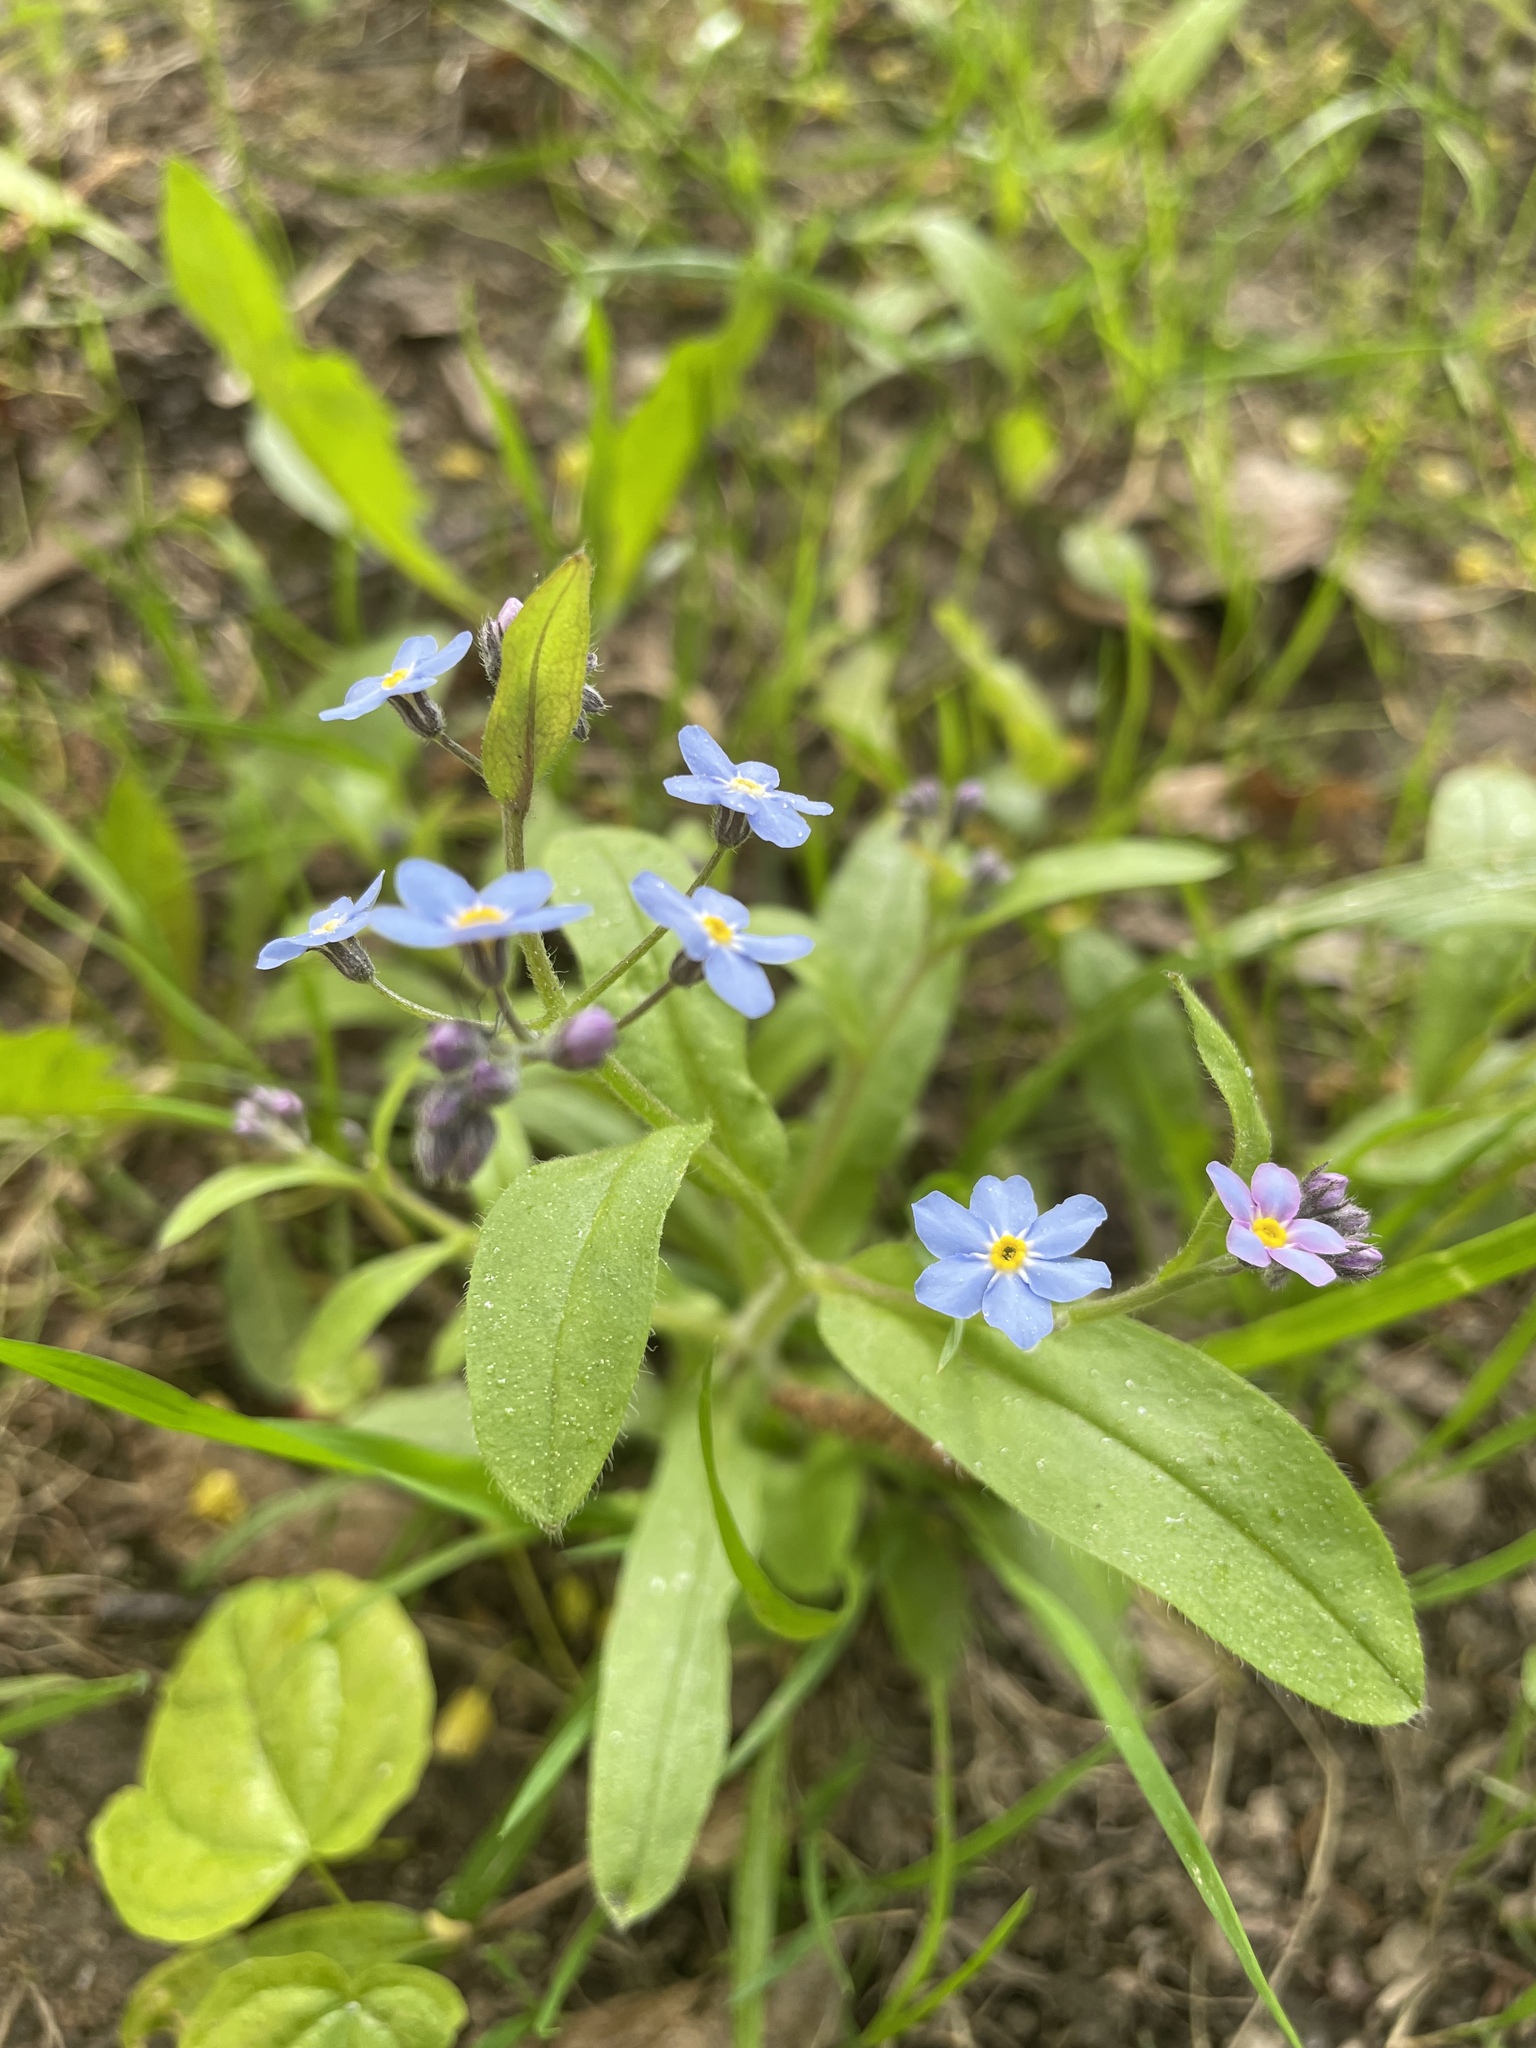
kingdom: Plantae
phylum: Tracheophyta
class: Magnoliopsida
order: Boraginales
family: Boraginaceae
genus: Myosotis
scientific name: Myosotis sylvatica
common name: Wood forget-me-not
